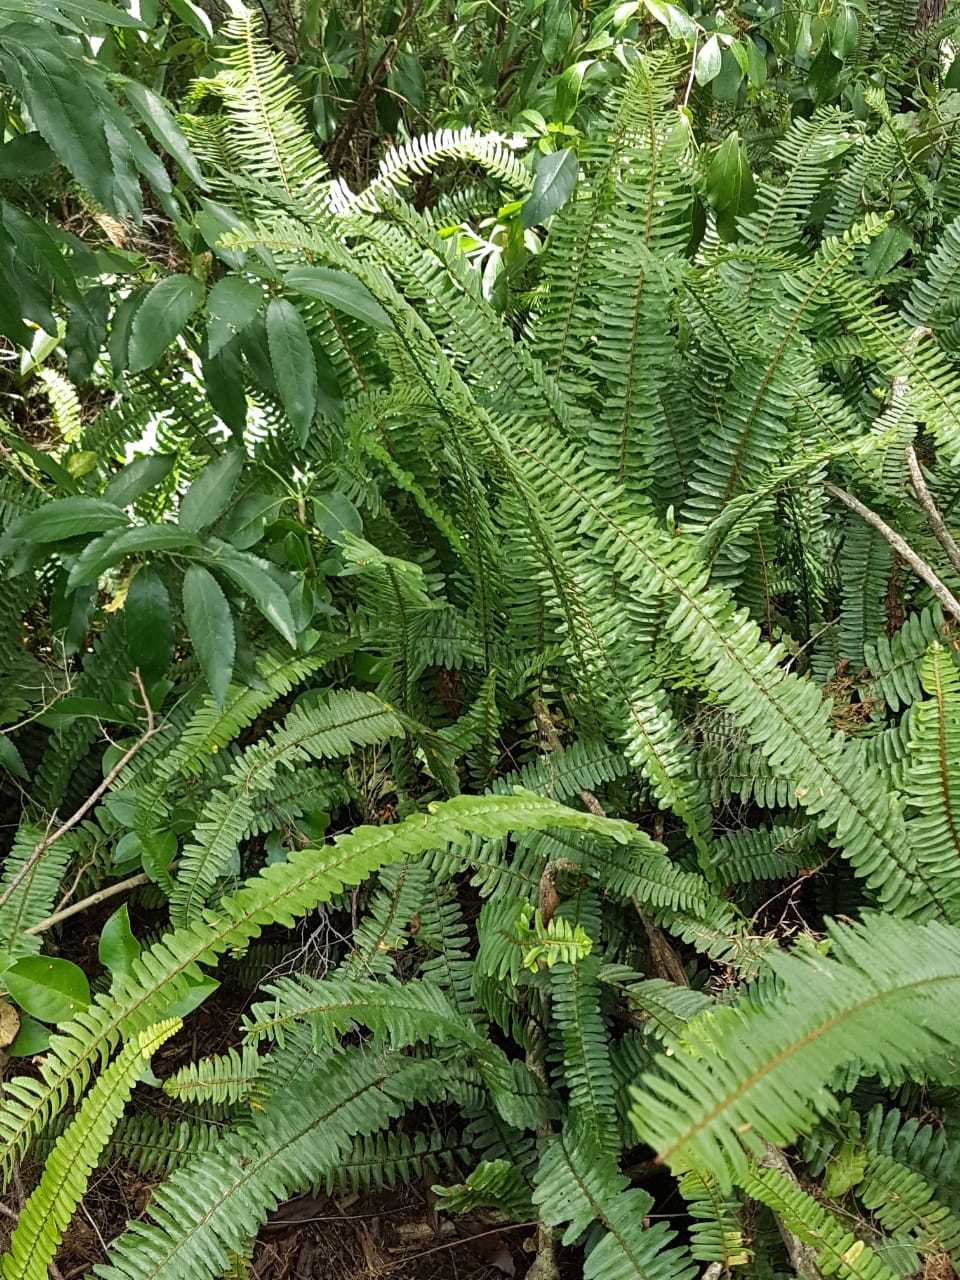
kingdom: Plantae
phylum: Tracheophyta
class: Polypodiopsida
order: Polypodiales
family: Nephrolepidaceae
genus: Nephrolepis
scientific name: Nephrolepis cordifolia
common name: Narrow swordfern
